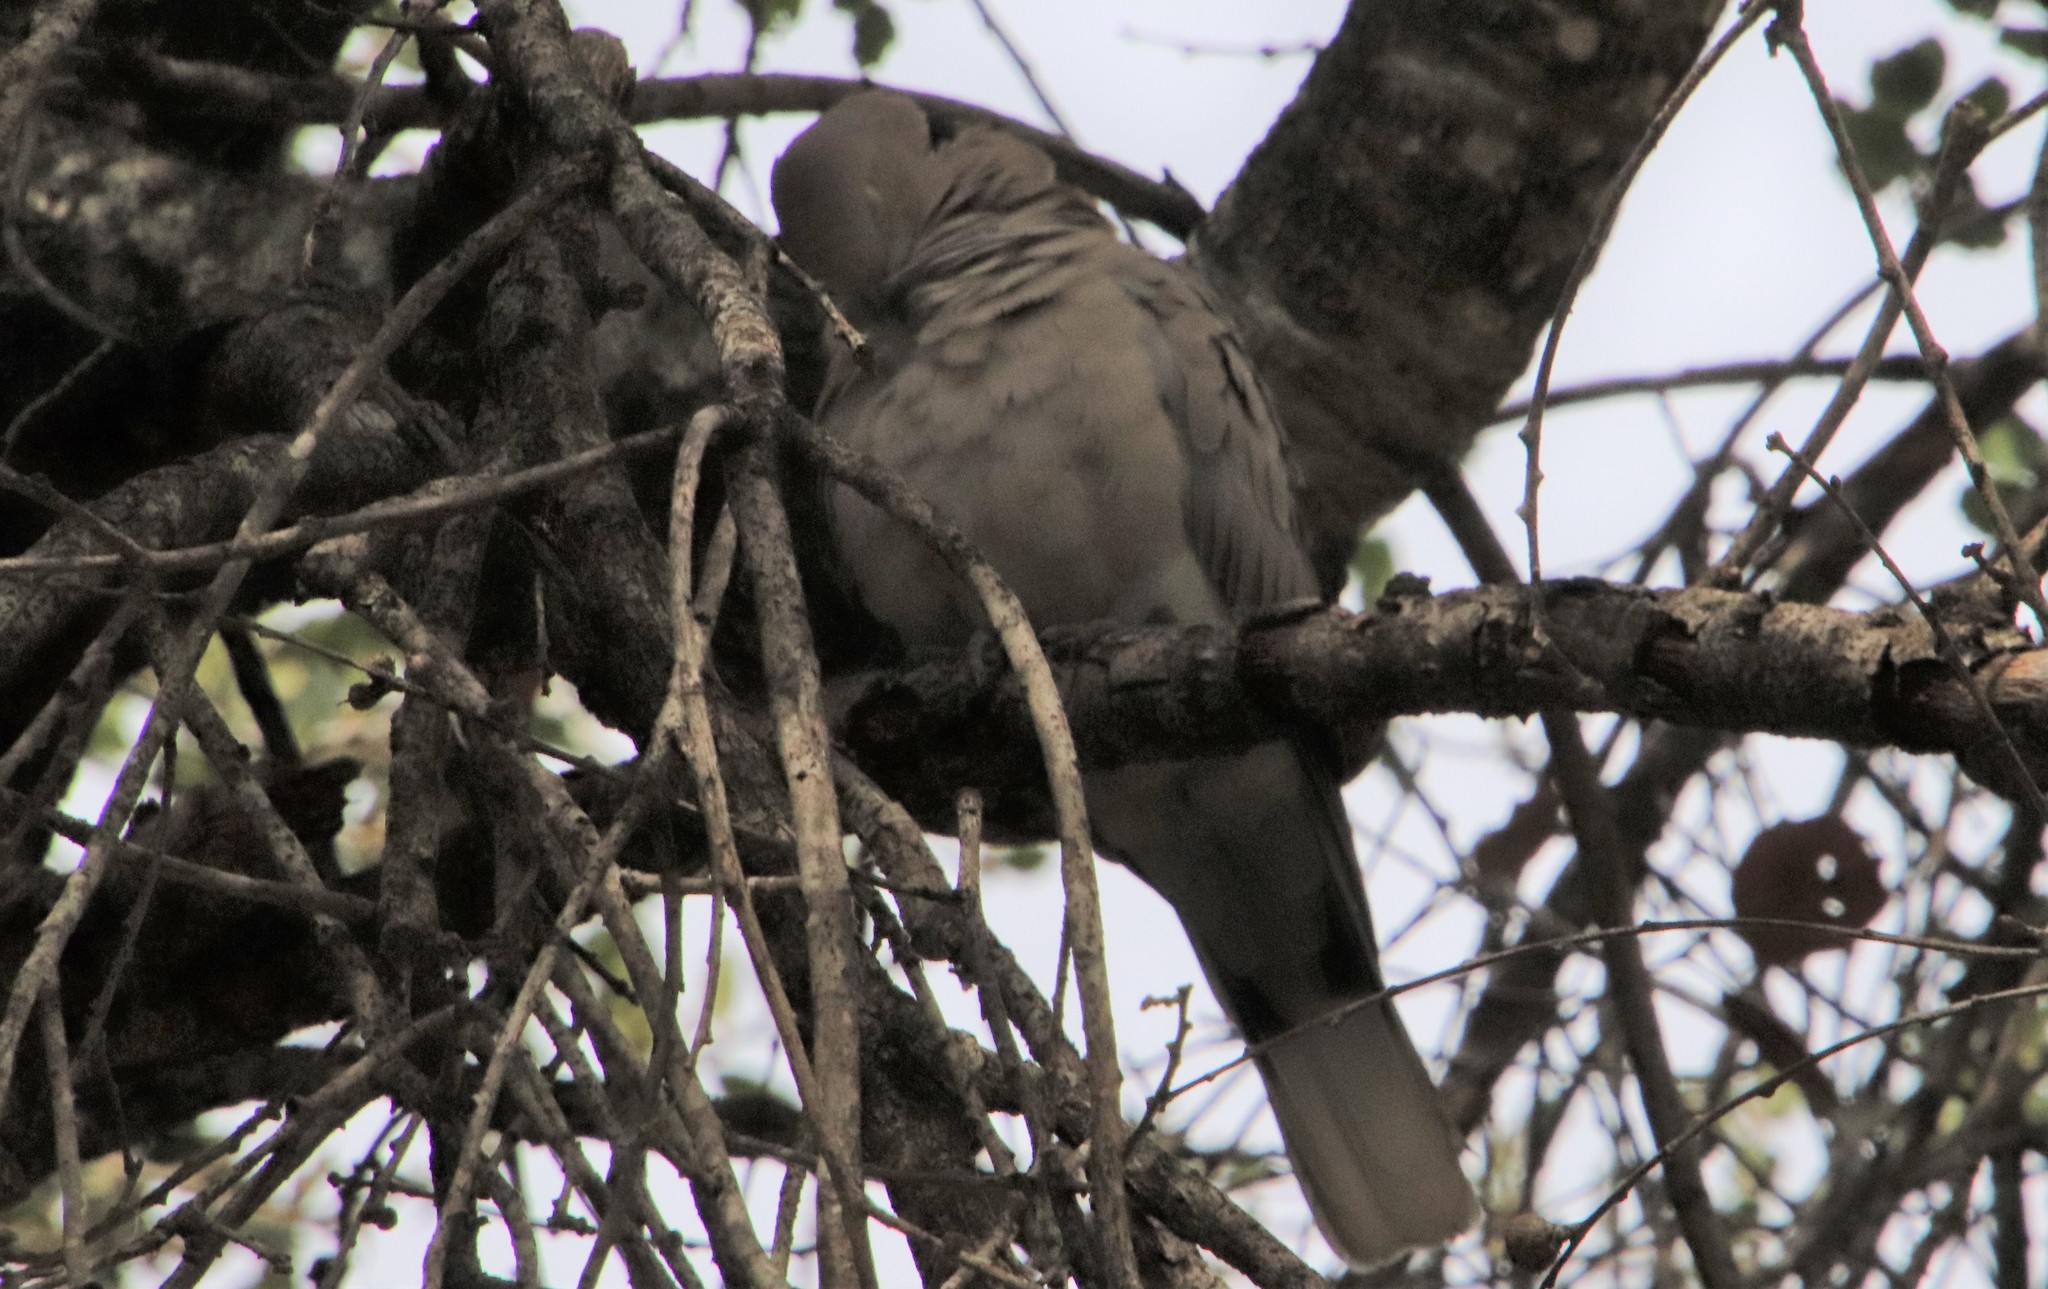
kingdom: Animalia
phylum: Chordata
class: Aves
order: Columbiformes
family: Columbidae
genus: Streptopelia
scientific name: Streptopelia decaocto
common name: Eurasian collared dove
